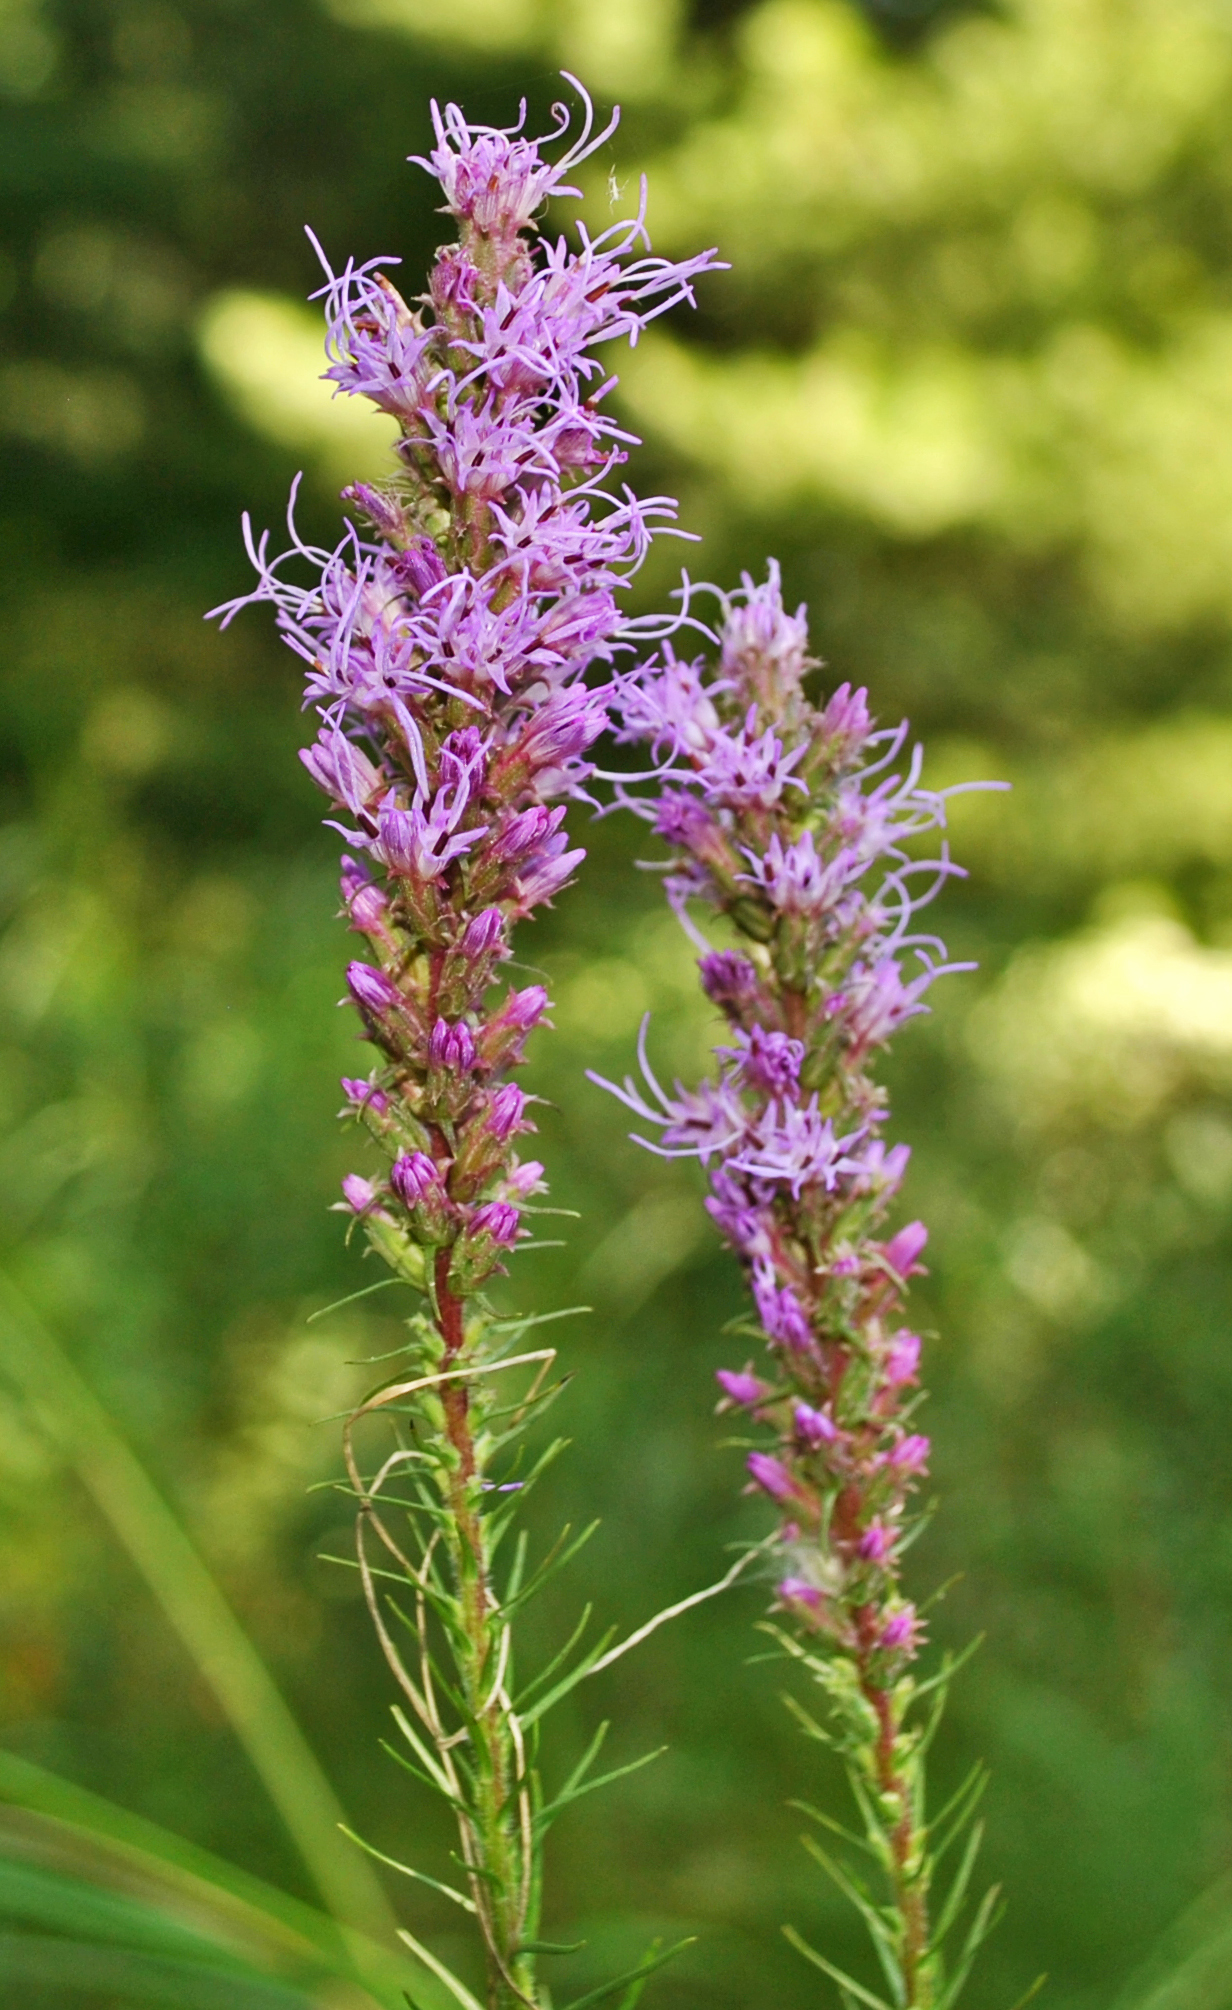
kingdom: Plantae
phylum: Tracheophyta
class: Magnoliopsida
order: Asterales
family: Asteraceae
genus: Liatris
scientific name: Liatris pycnostachya
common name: Cattail gayfeather
